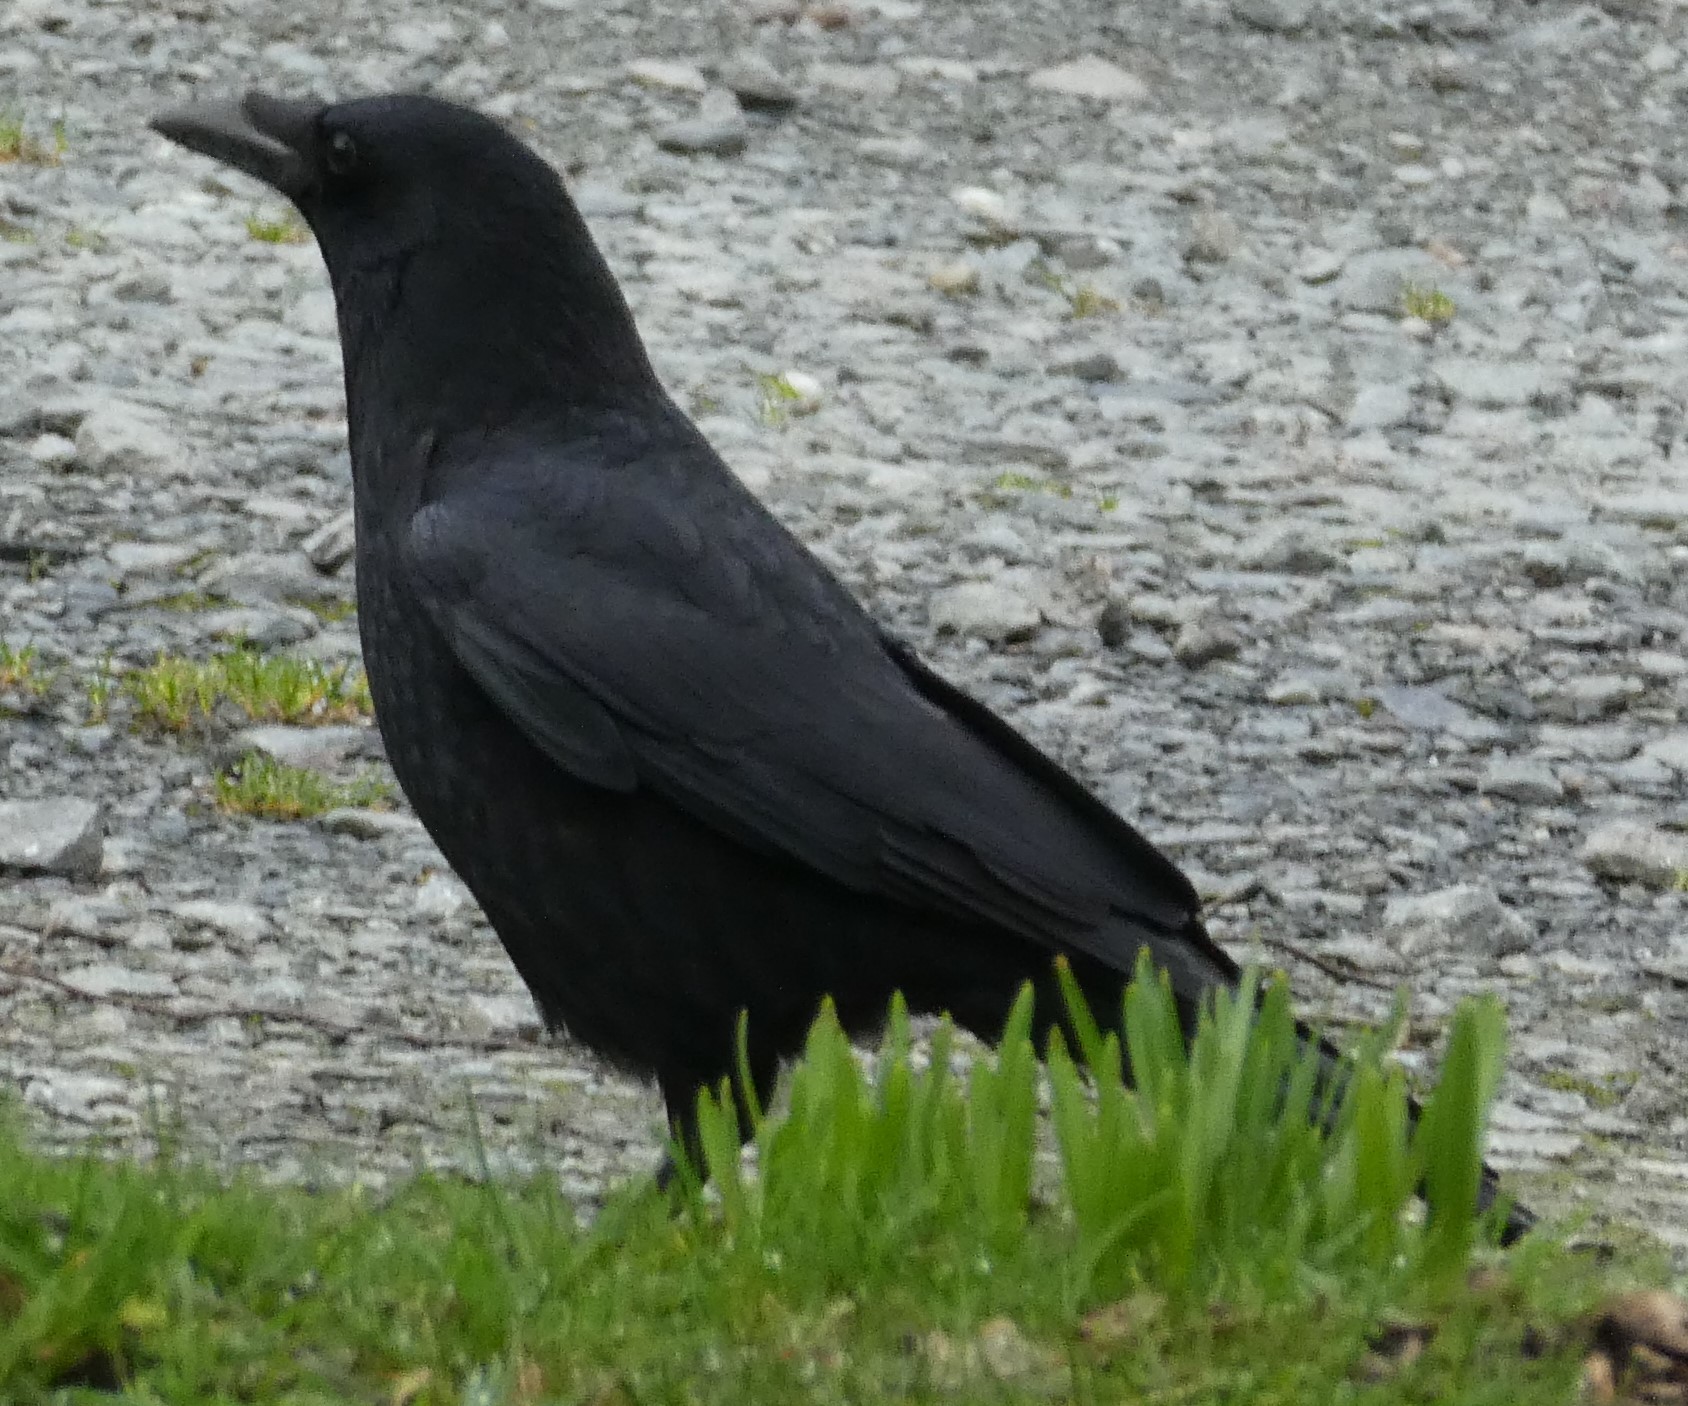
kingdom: Animalia
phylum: Chordata
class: Aves
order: Passeriformes
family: Corvidae
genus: Corvus
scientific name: Corvus corone
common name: Carrion crow
